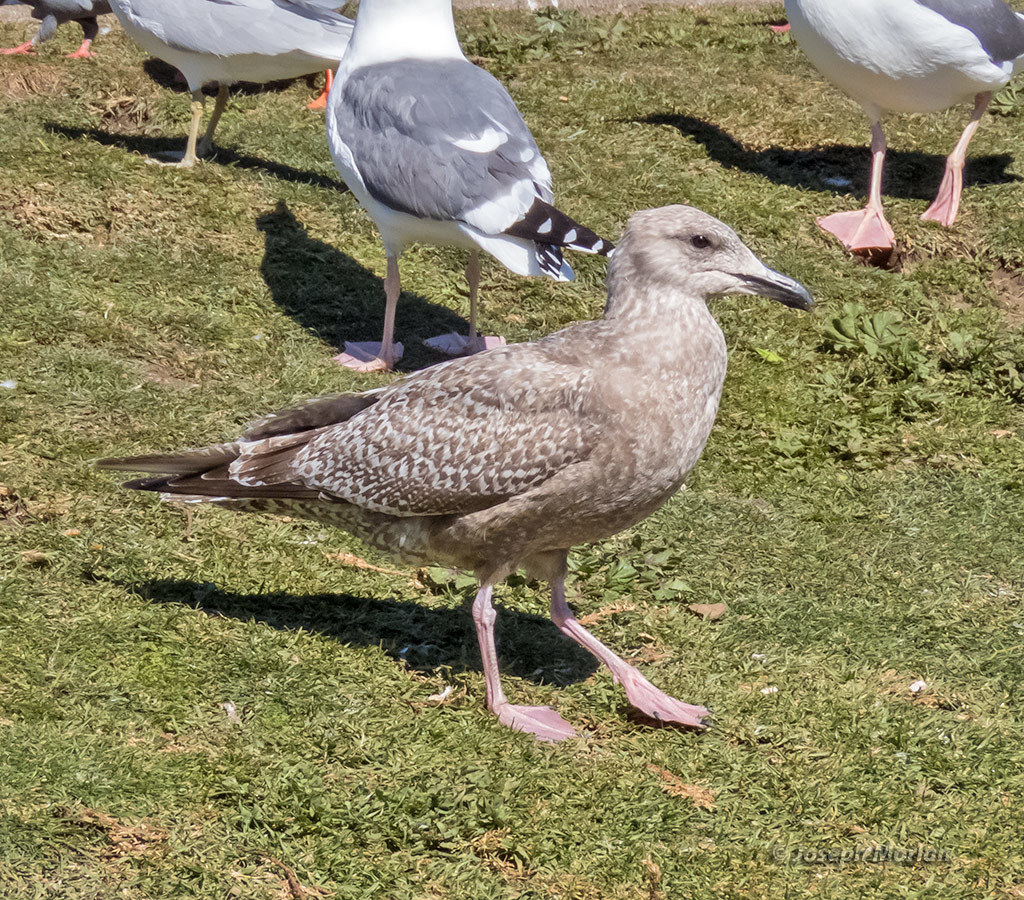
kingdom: Animalia
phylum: Chordata
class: Aves
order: Charadriiformes
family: Laridae
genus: Larus
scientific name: Larus argentatus
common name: Herring gull
